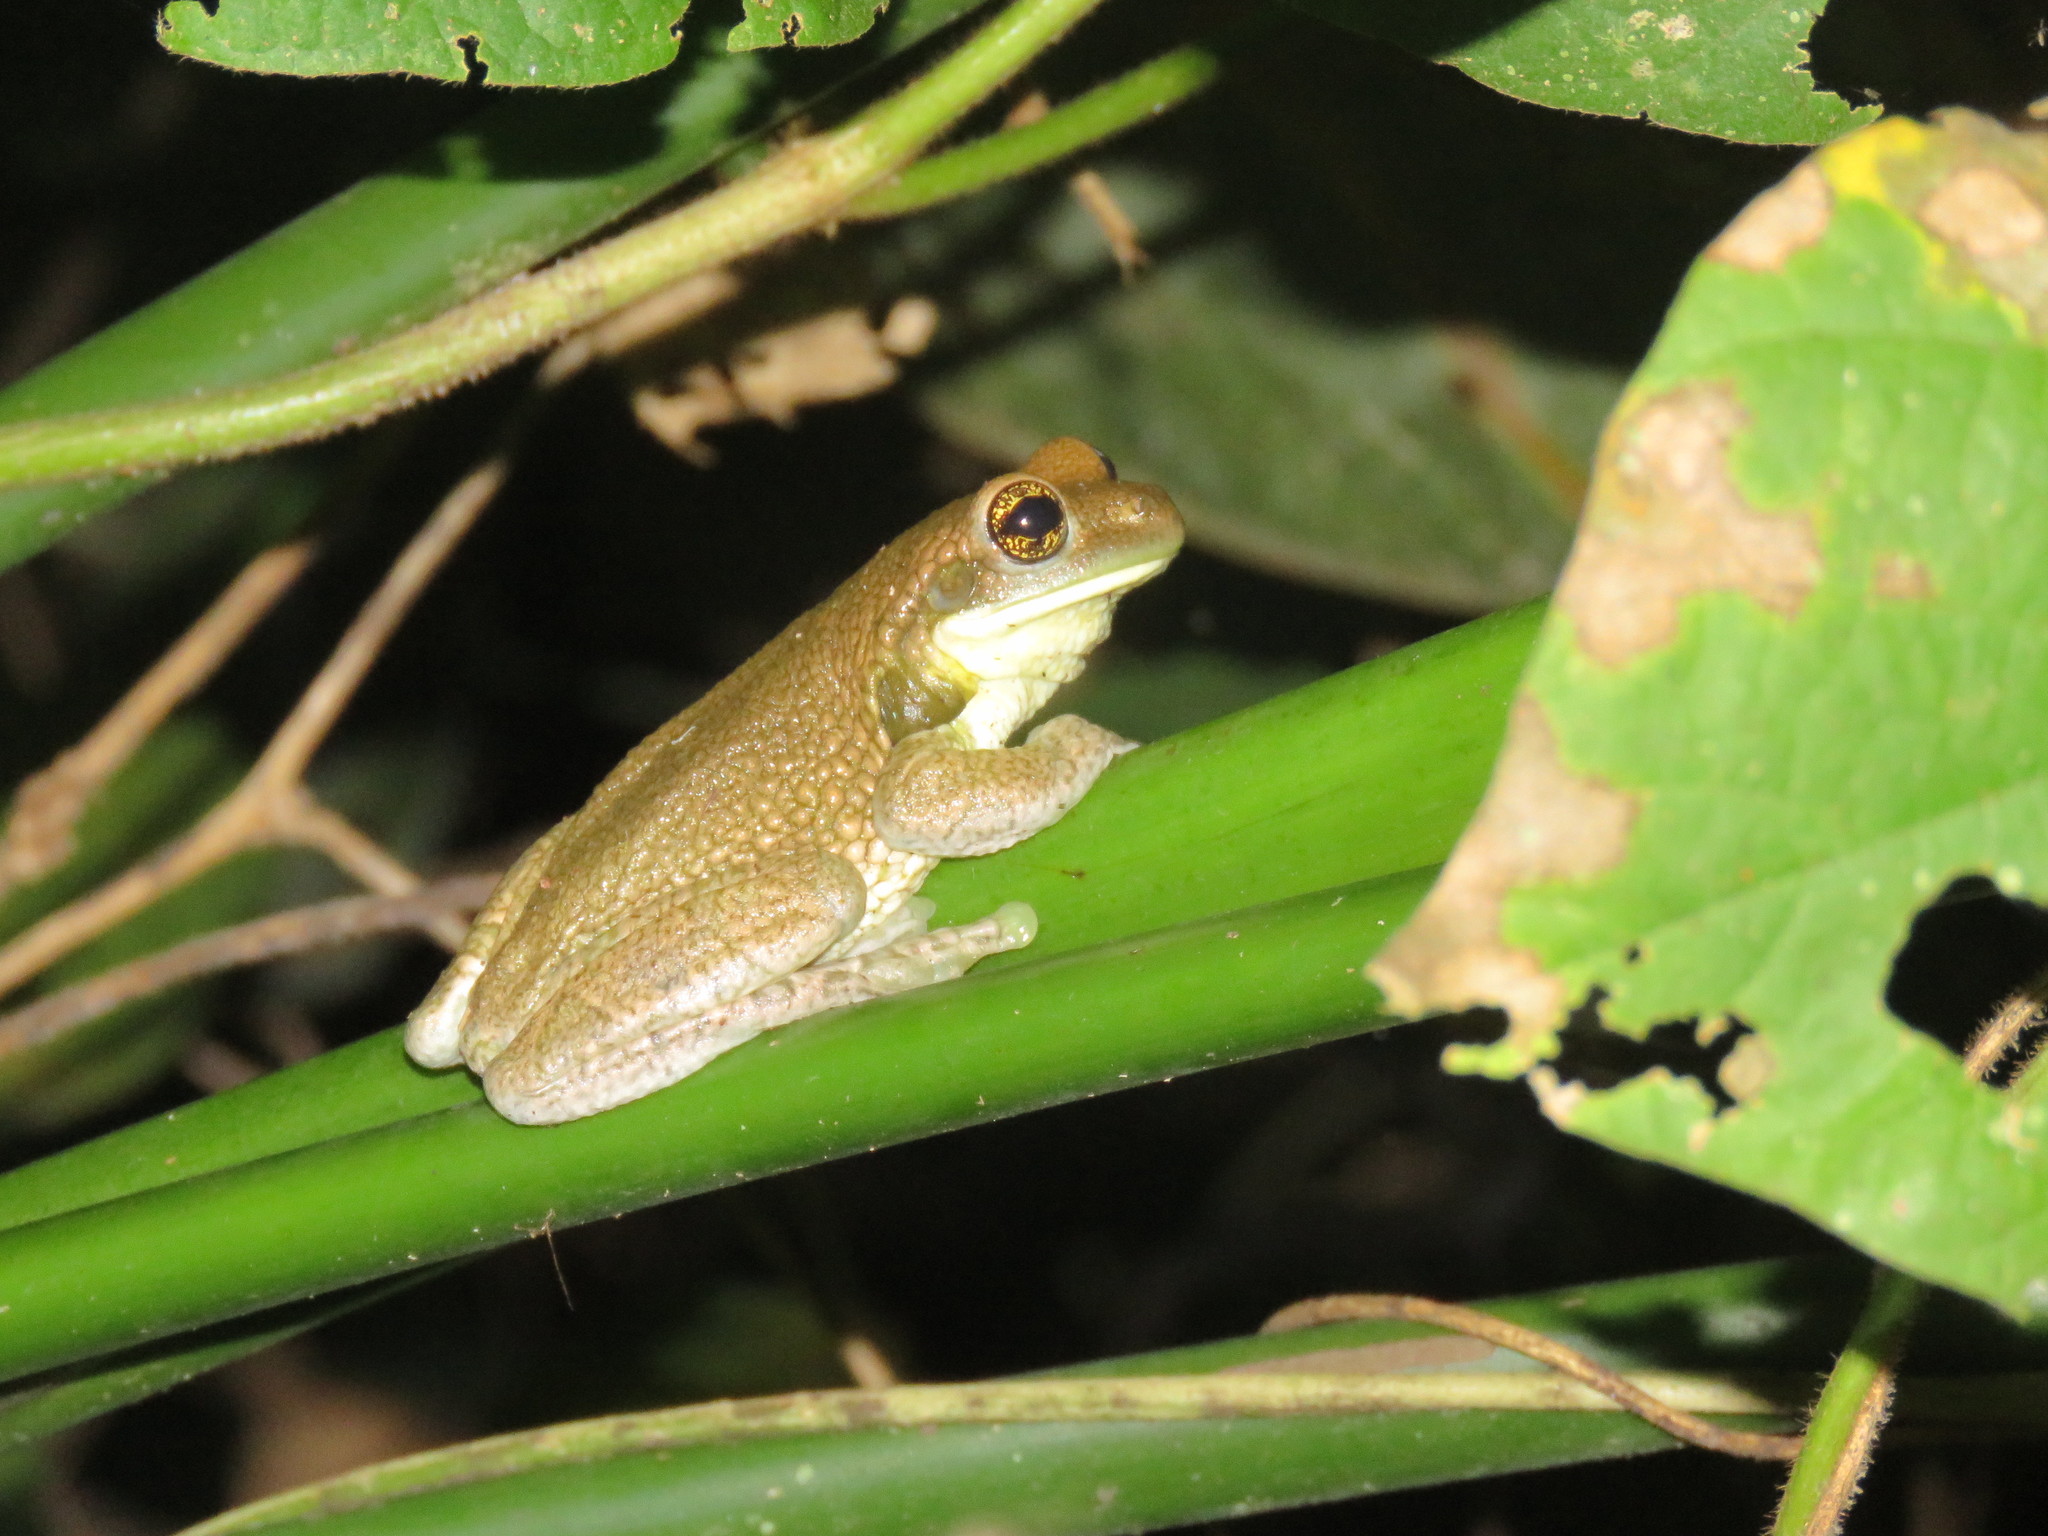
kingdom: Animalia
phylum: Chordata
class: Amphibia
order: Anura
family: Hylidae
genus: Trachycephalus
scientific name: Trachycephalus typhonius
